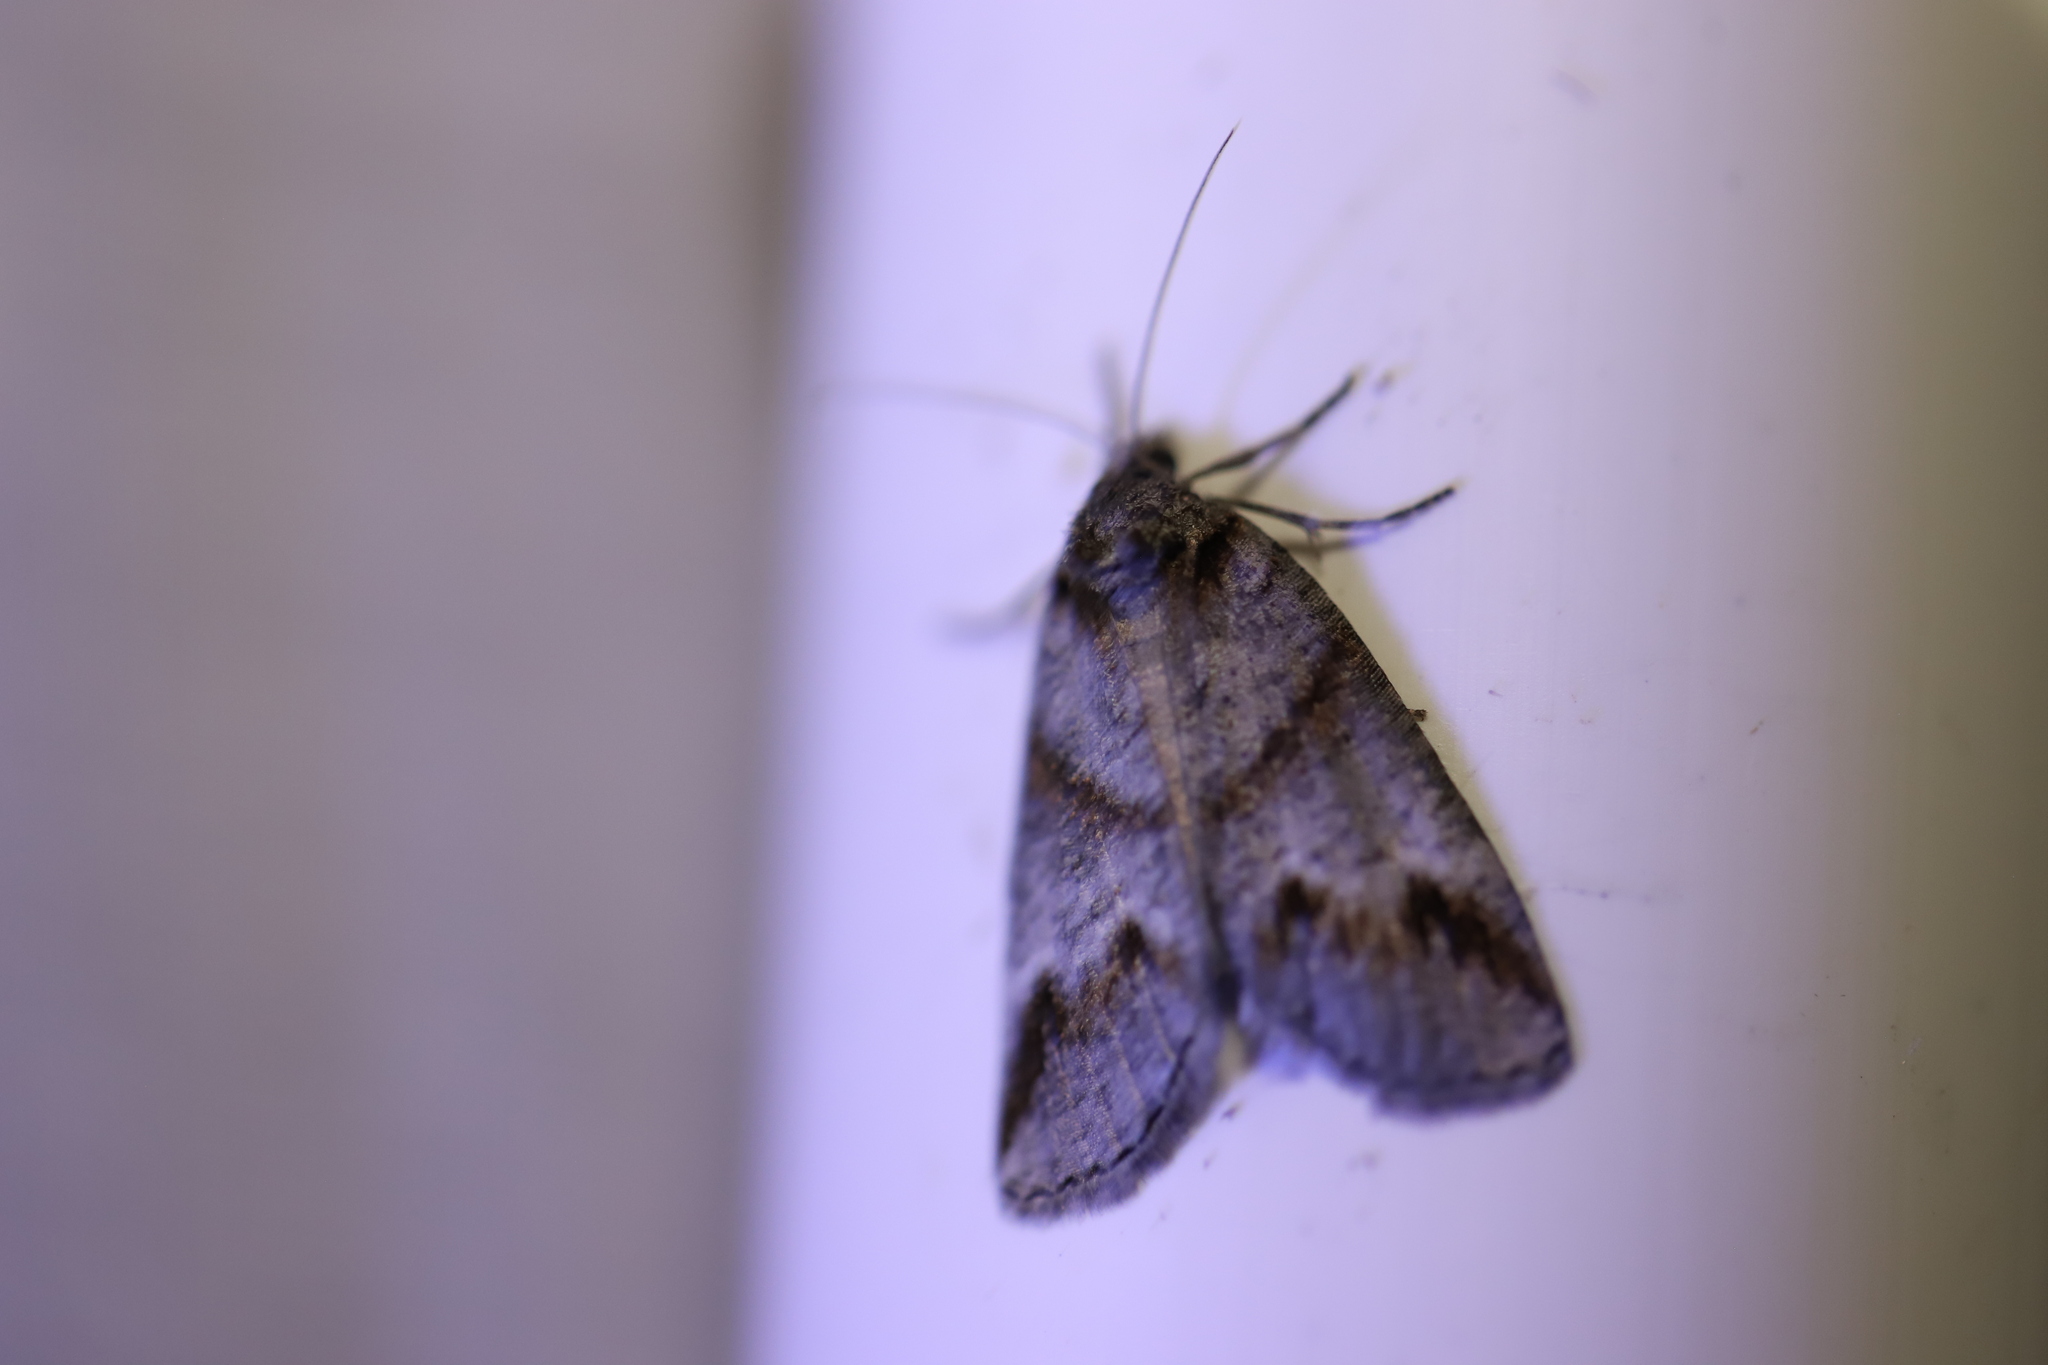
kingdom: Animalia
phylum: Arthropoda
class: Insecta
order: Lepidoptera
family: Geometridae
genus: Plesiolaea
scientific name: Plesiolaea maritima
